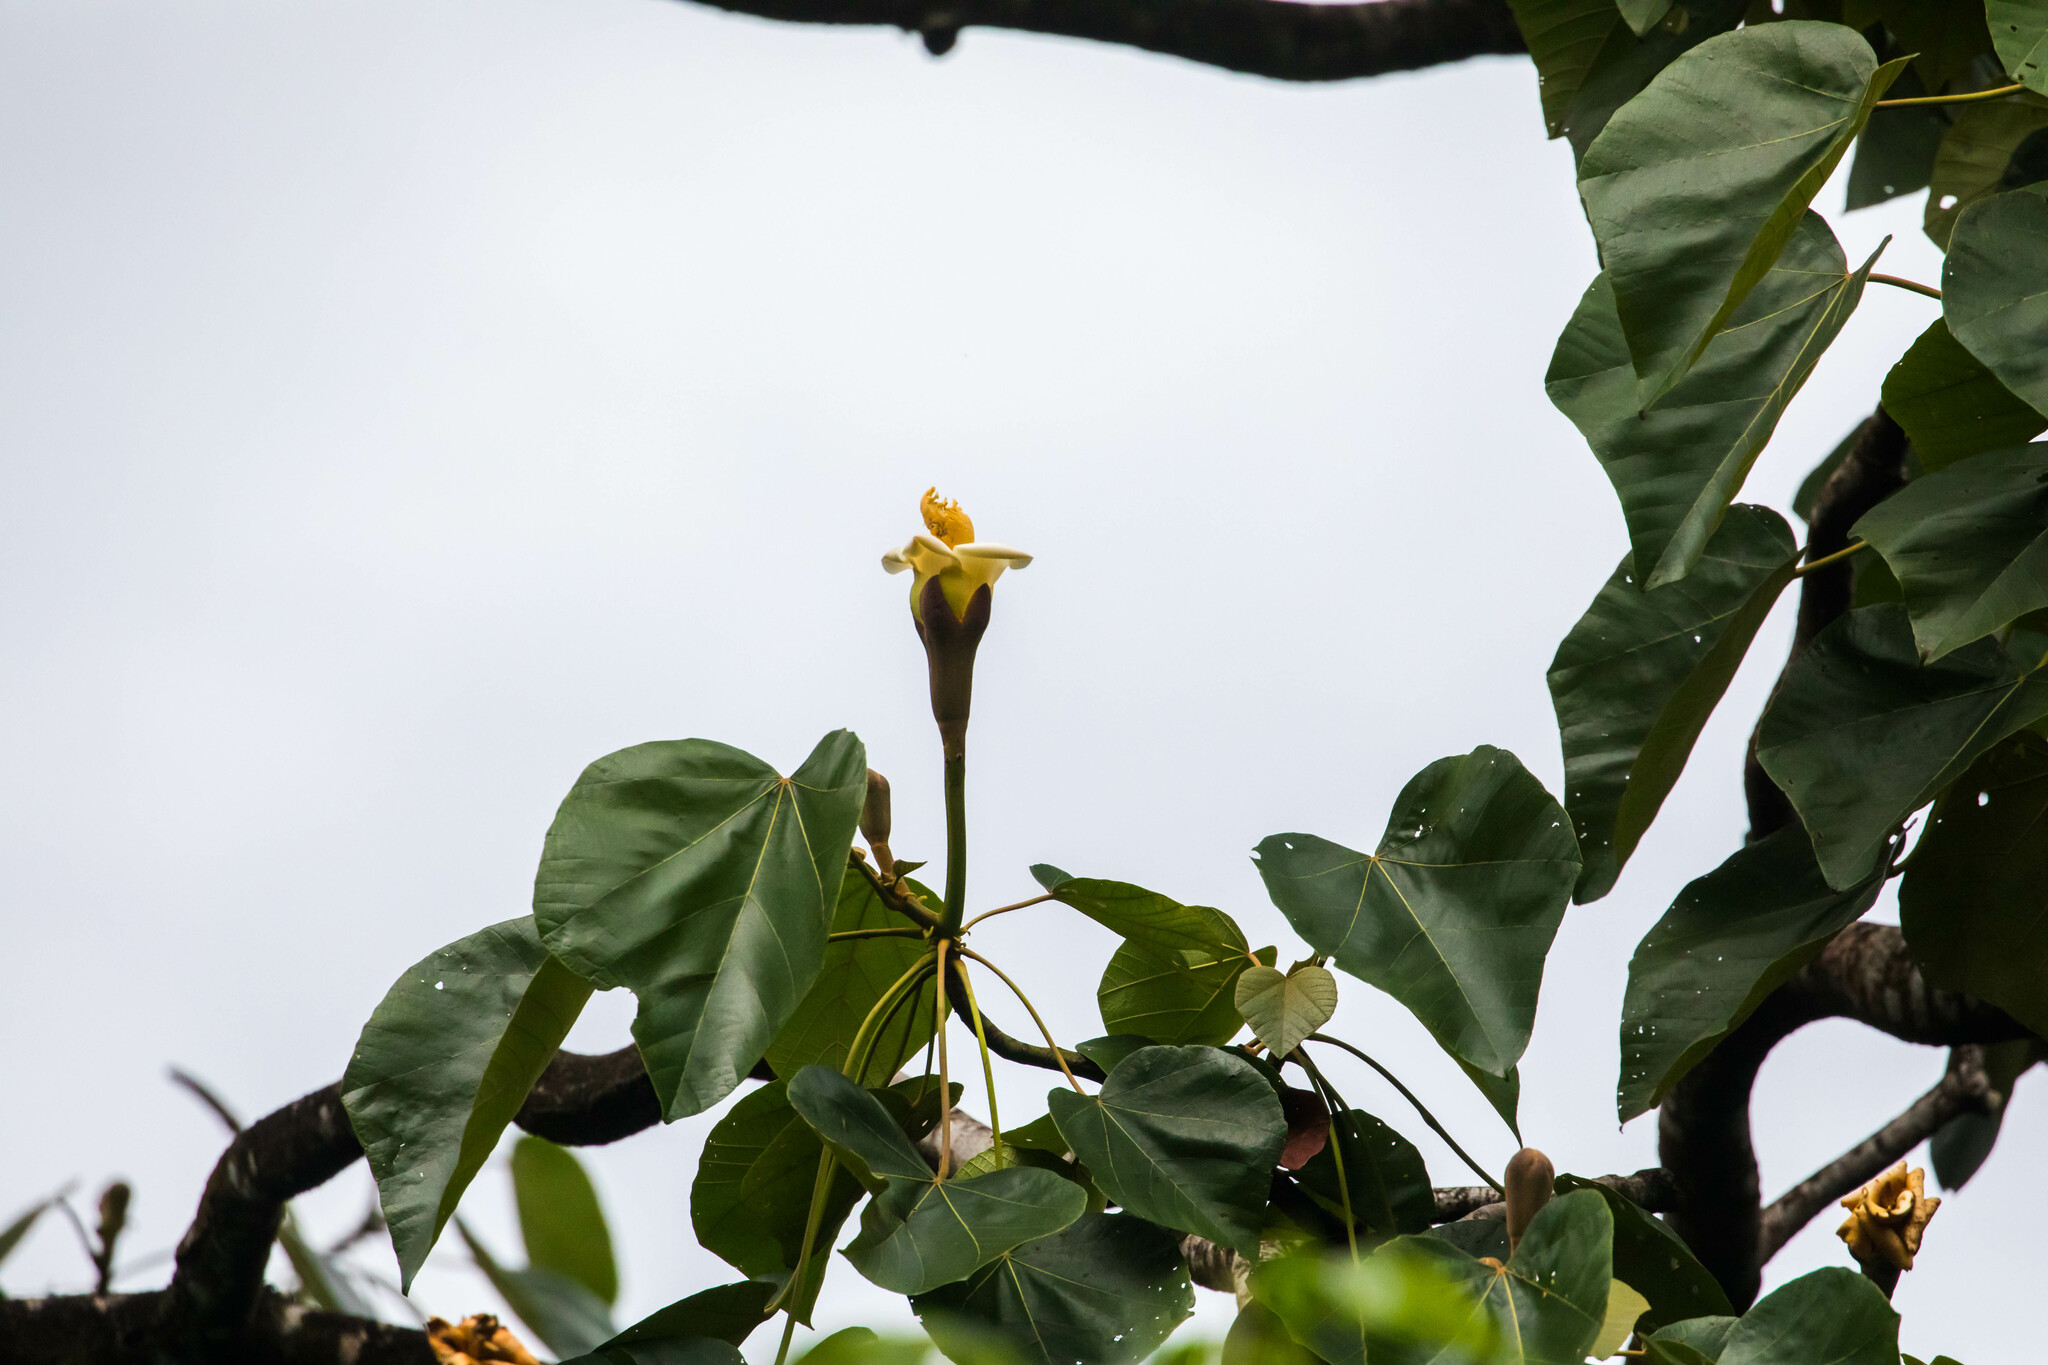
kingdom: Plantae
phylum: Tracheophyta
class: Magnoliopsida
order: Malvales
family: Malvaceae
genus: Ochroma
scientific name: Ochroma pyramidale
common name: Balsa
